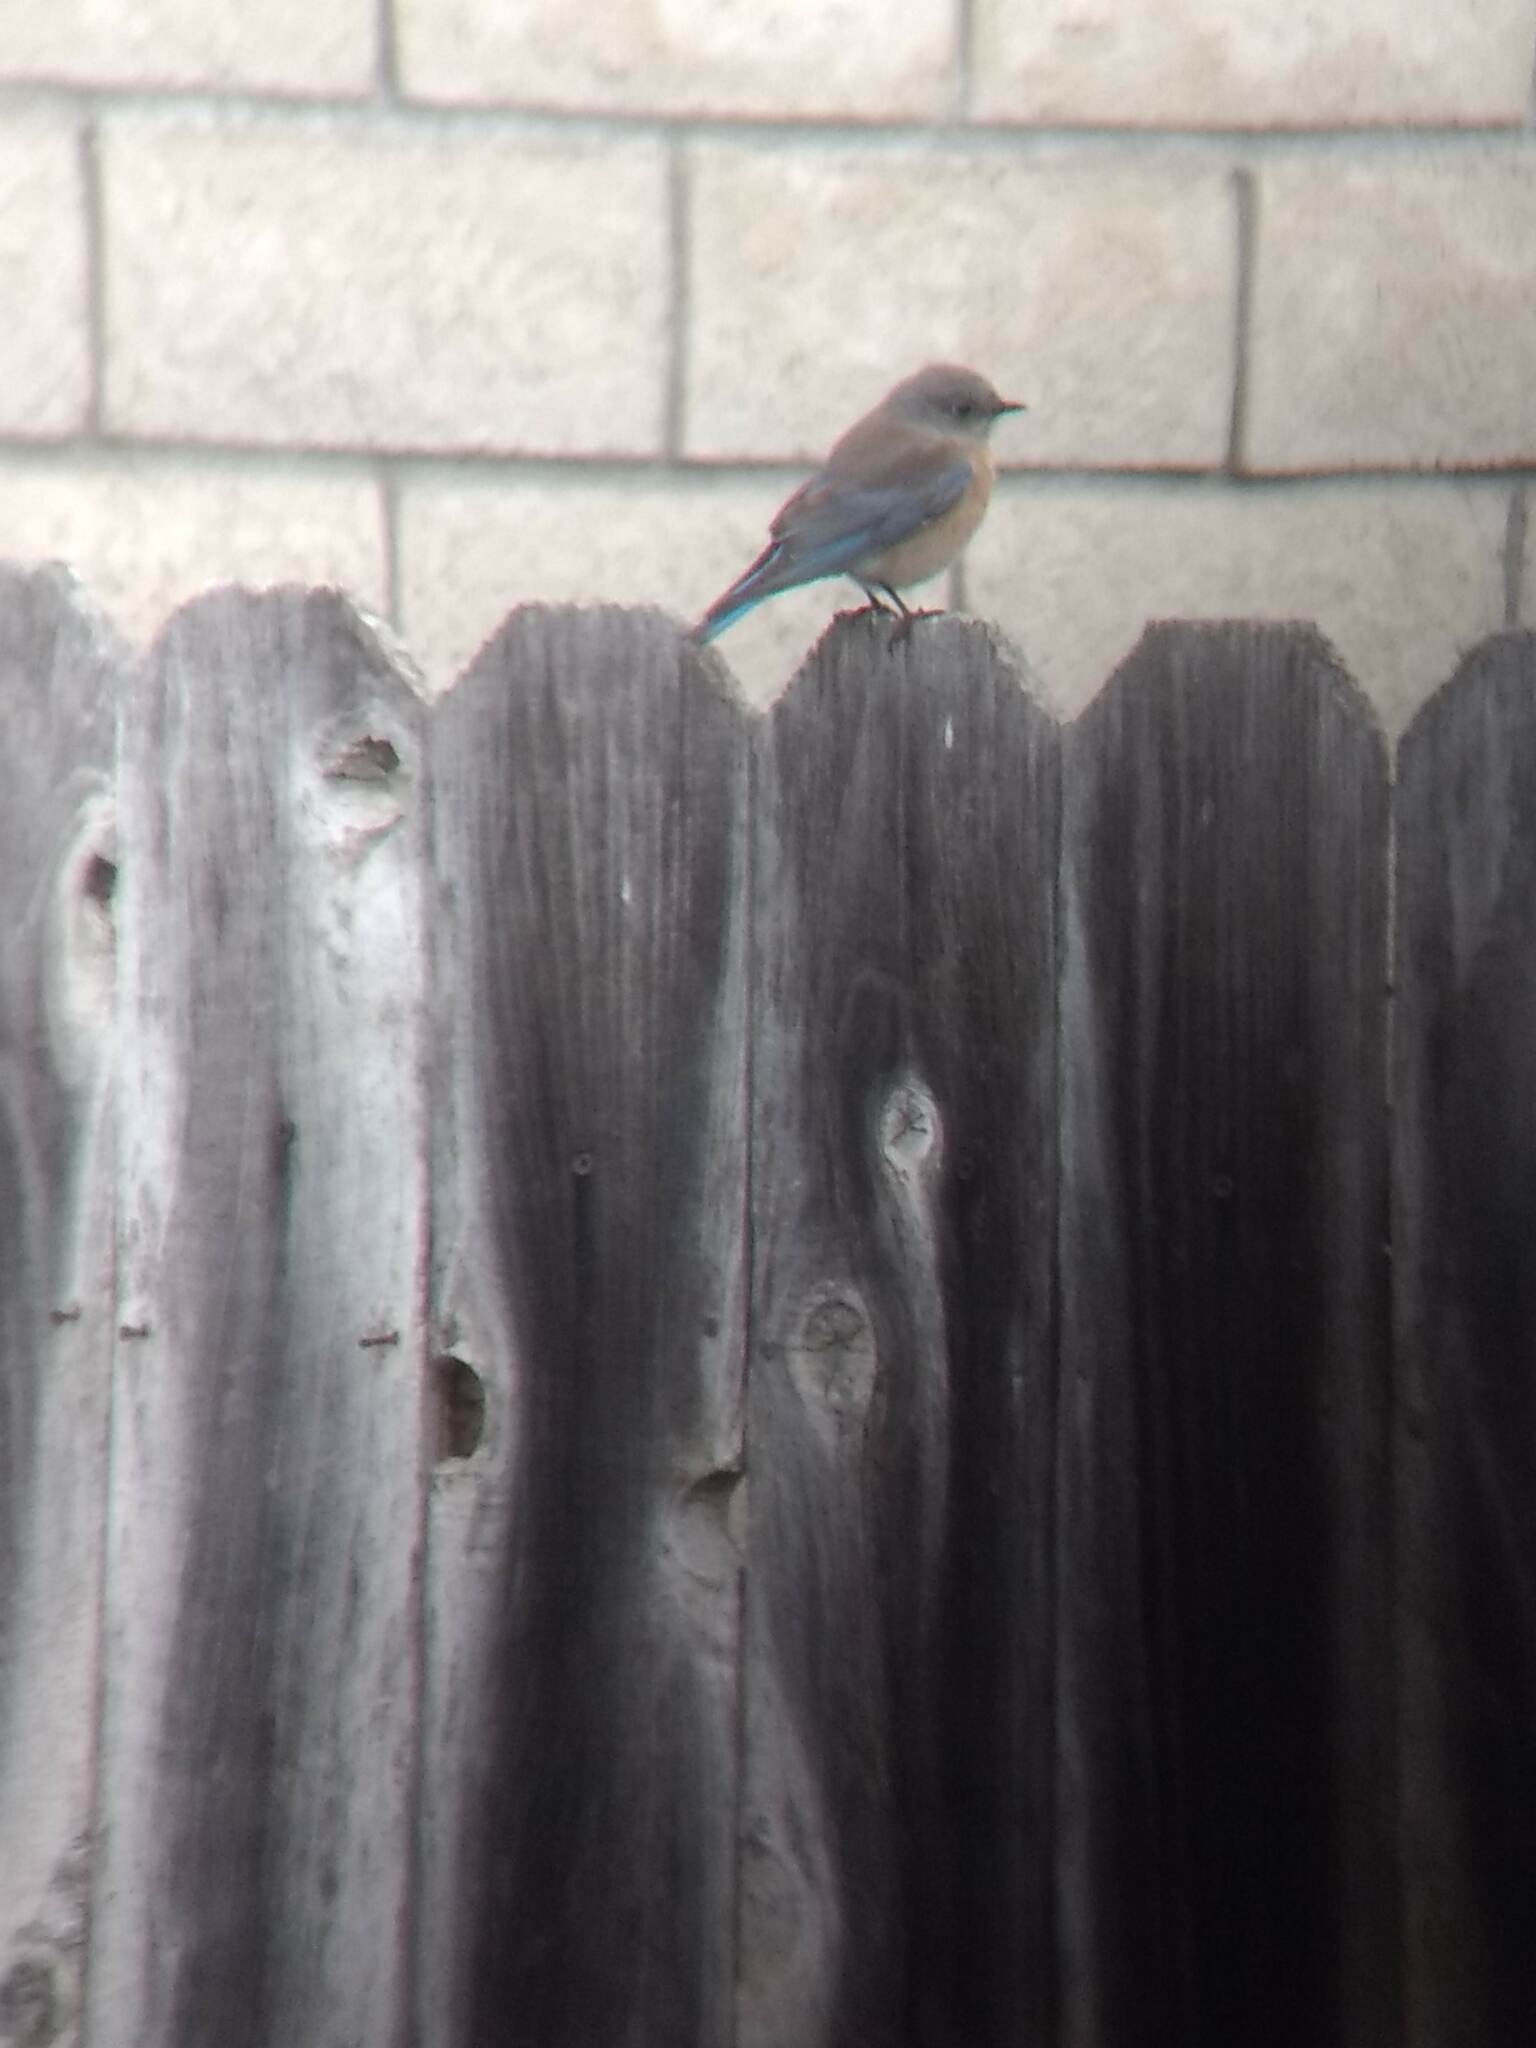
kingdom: Animalia
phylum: Chordata
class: Aves
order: Passeriformes
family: Turdidae
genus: Sialia
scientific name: Sialia mexicana
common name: Western bluebird
